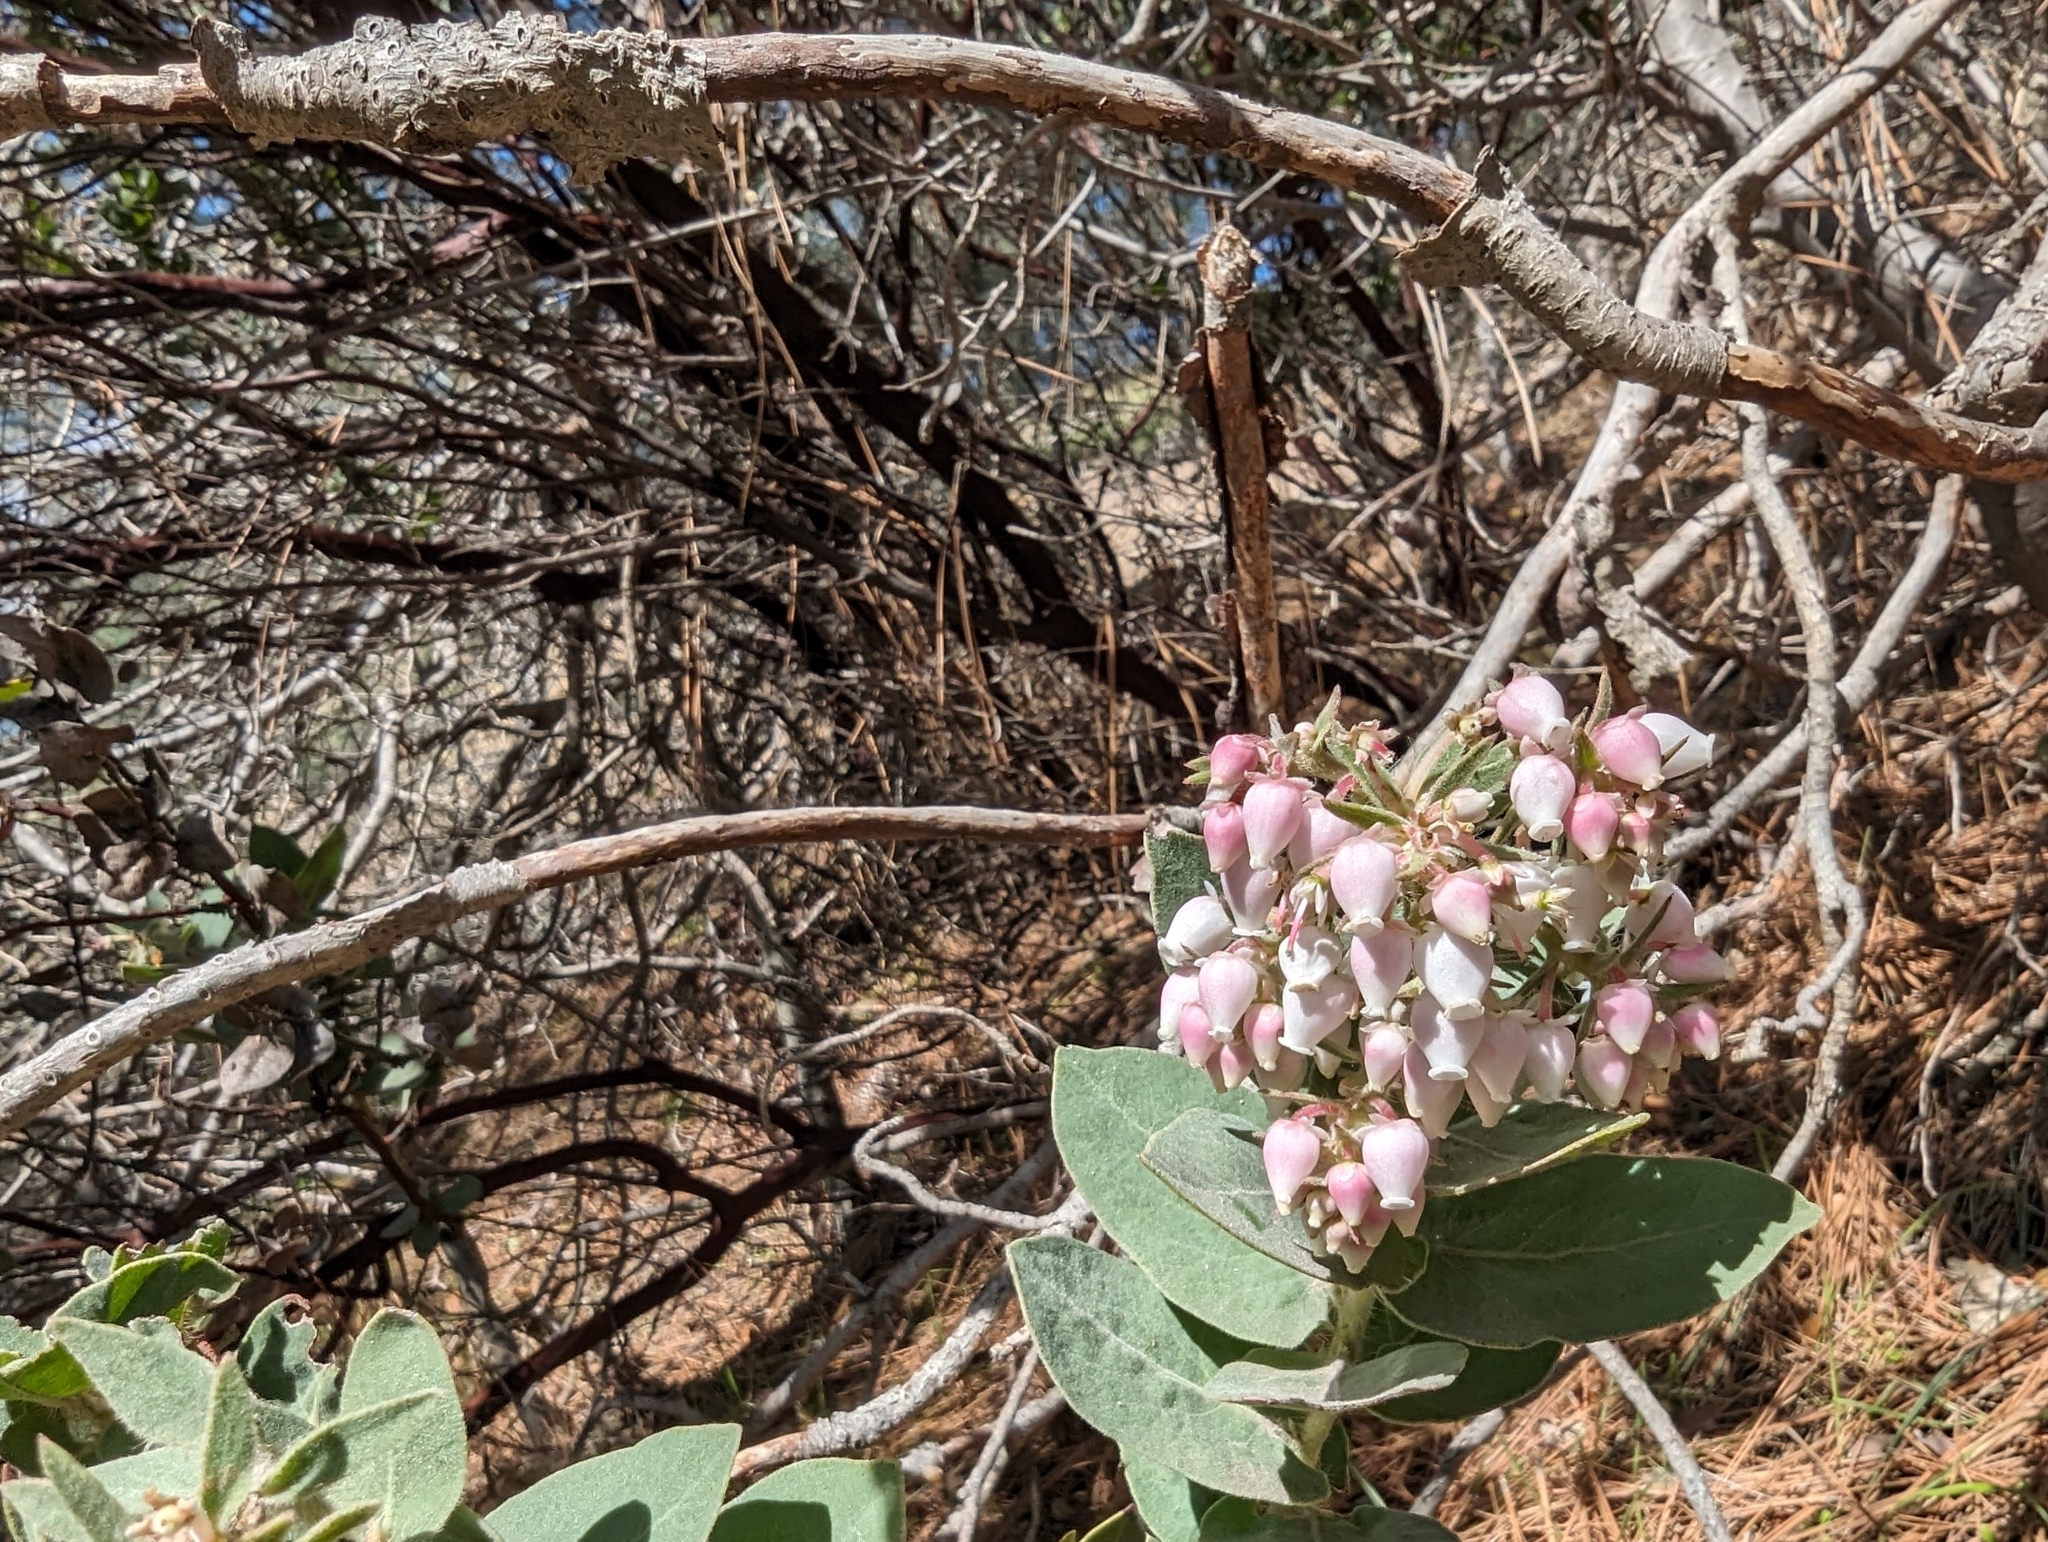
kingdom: Plantae
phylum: Tracheophyta
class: Magnoliopsida
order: Ericales
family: Ericaceae
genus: Arctostaphylos
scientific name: Arctostaphylos auriculata
